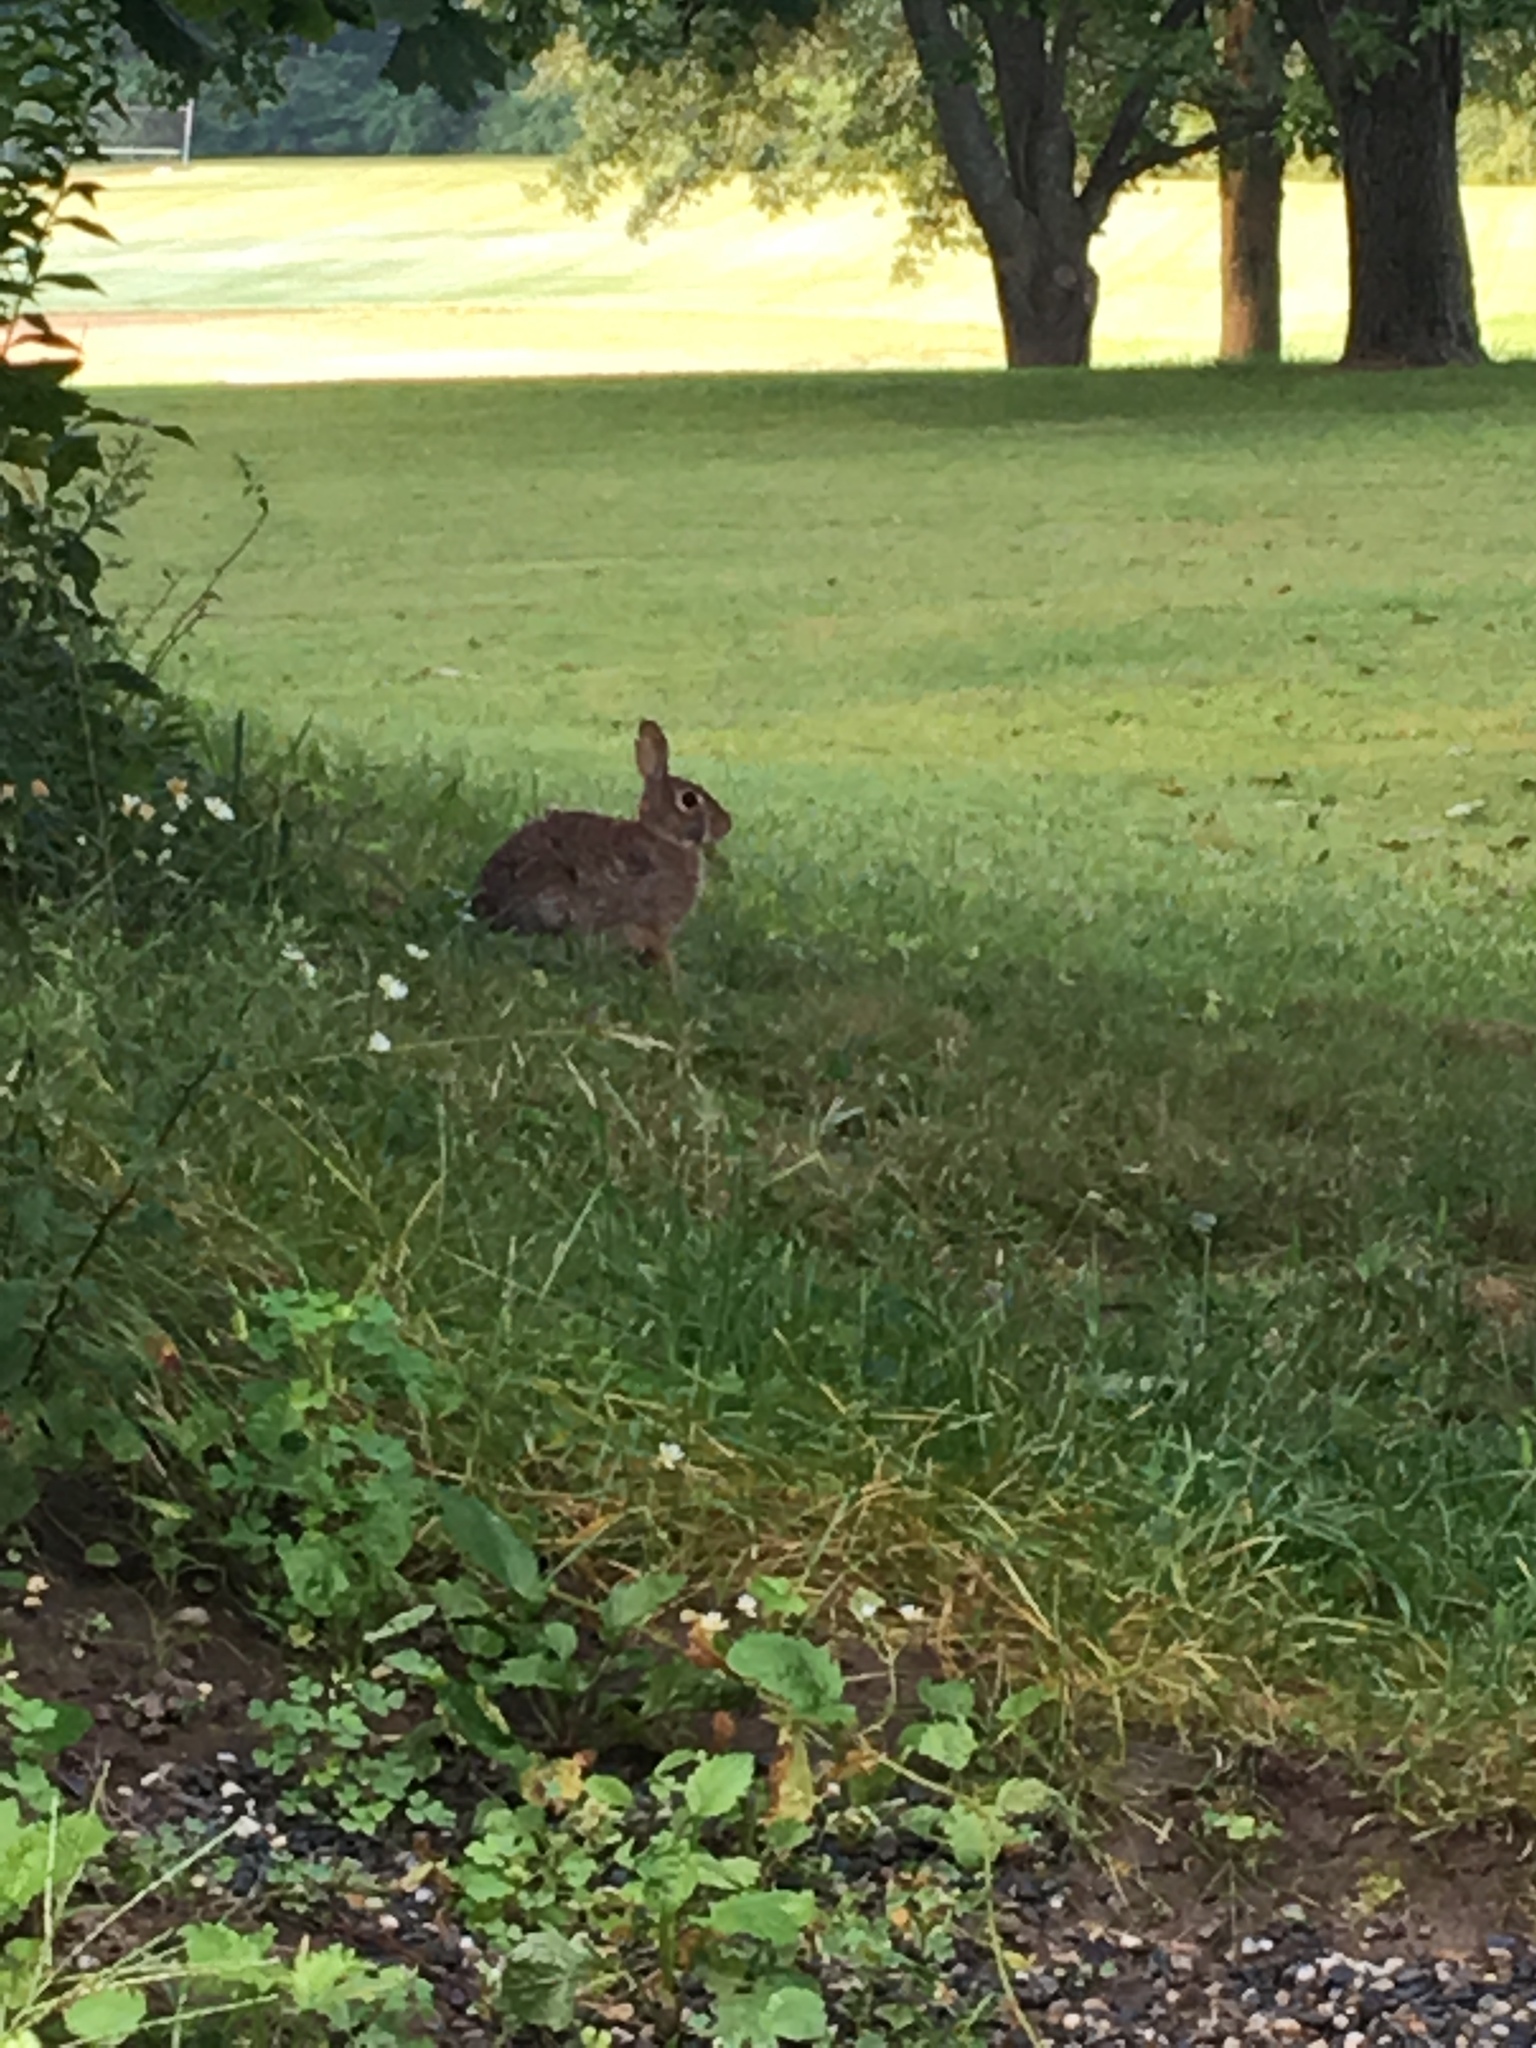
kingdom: Animalia
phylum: Chordata
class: Mammalia
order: Lagomorpha
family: Leporidae
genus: Sylvilagus
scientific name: Sylvilagus floridanus
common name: Eastern cottontail
